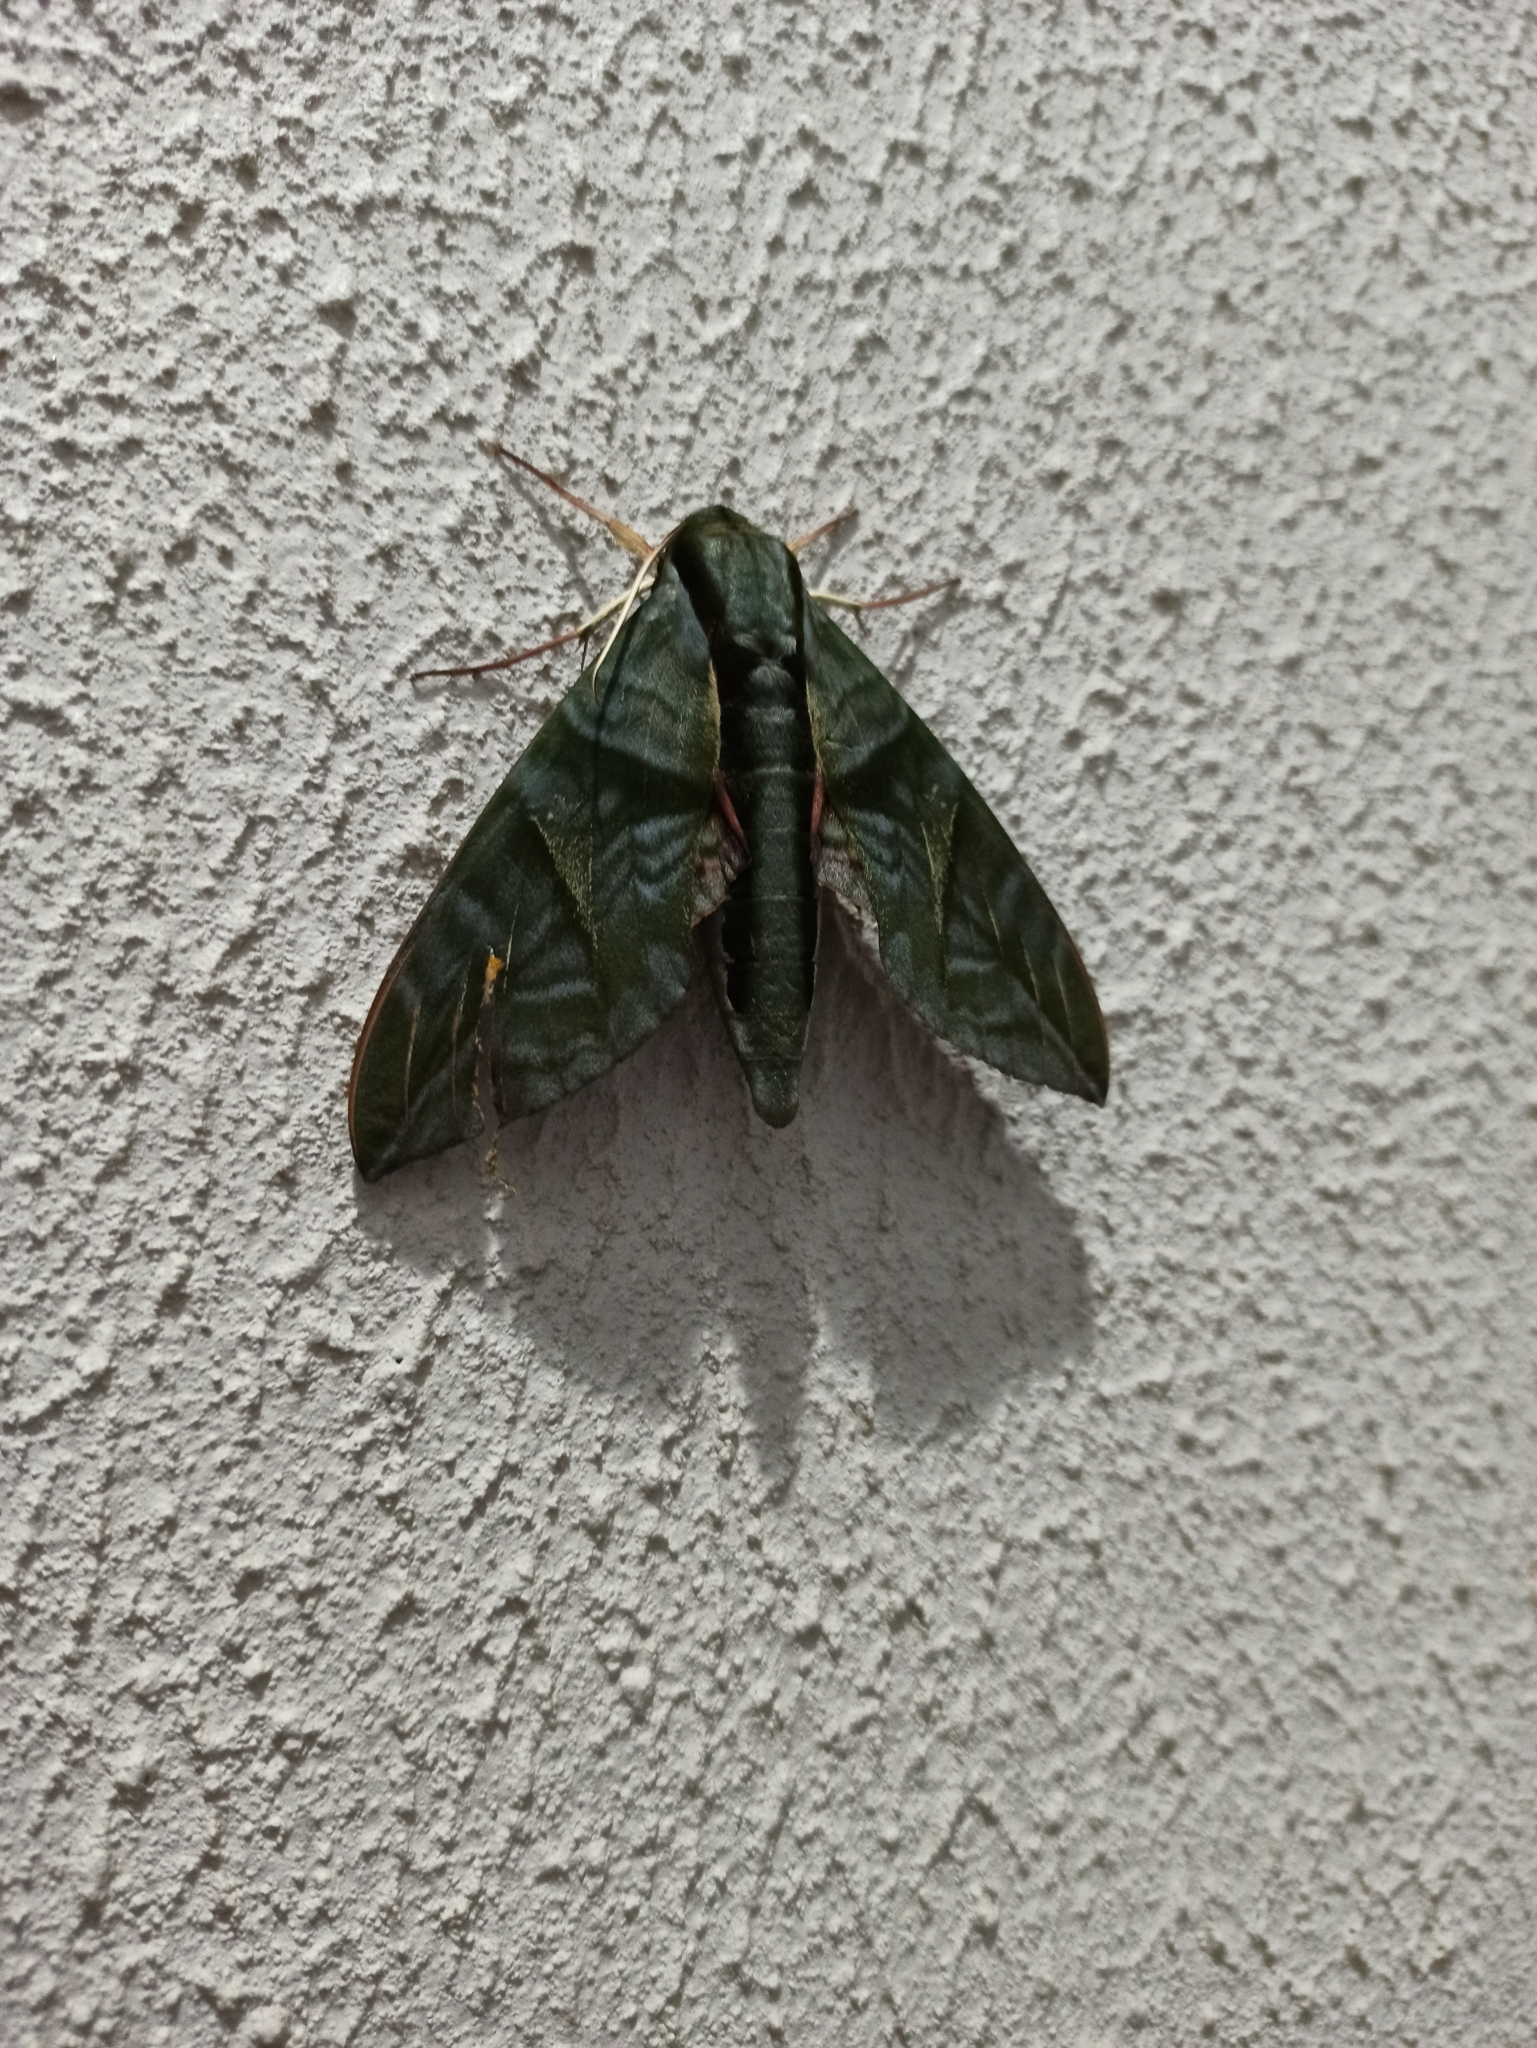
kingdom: Animalia
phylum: Arthropoda
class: Insecta
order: Lepidoptera
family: Sphingidae
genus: Eumorpha
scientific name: Eumorpha phorbas
